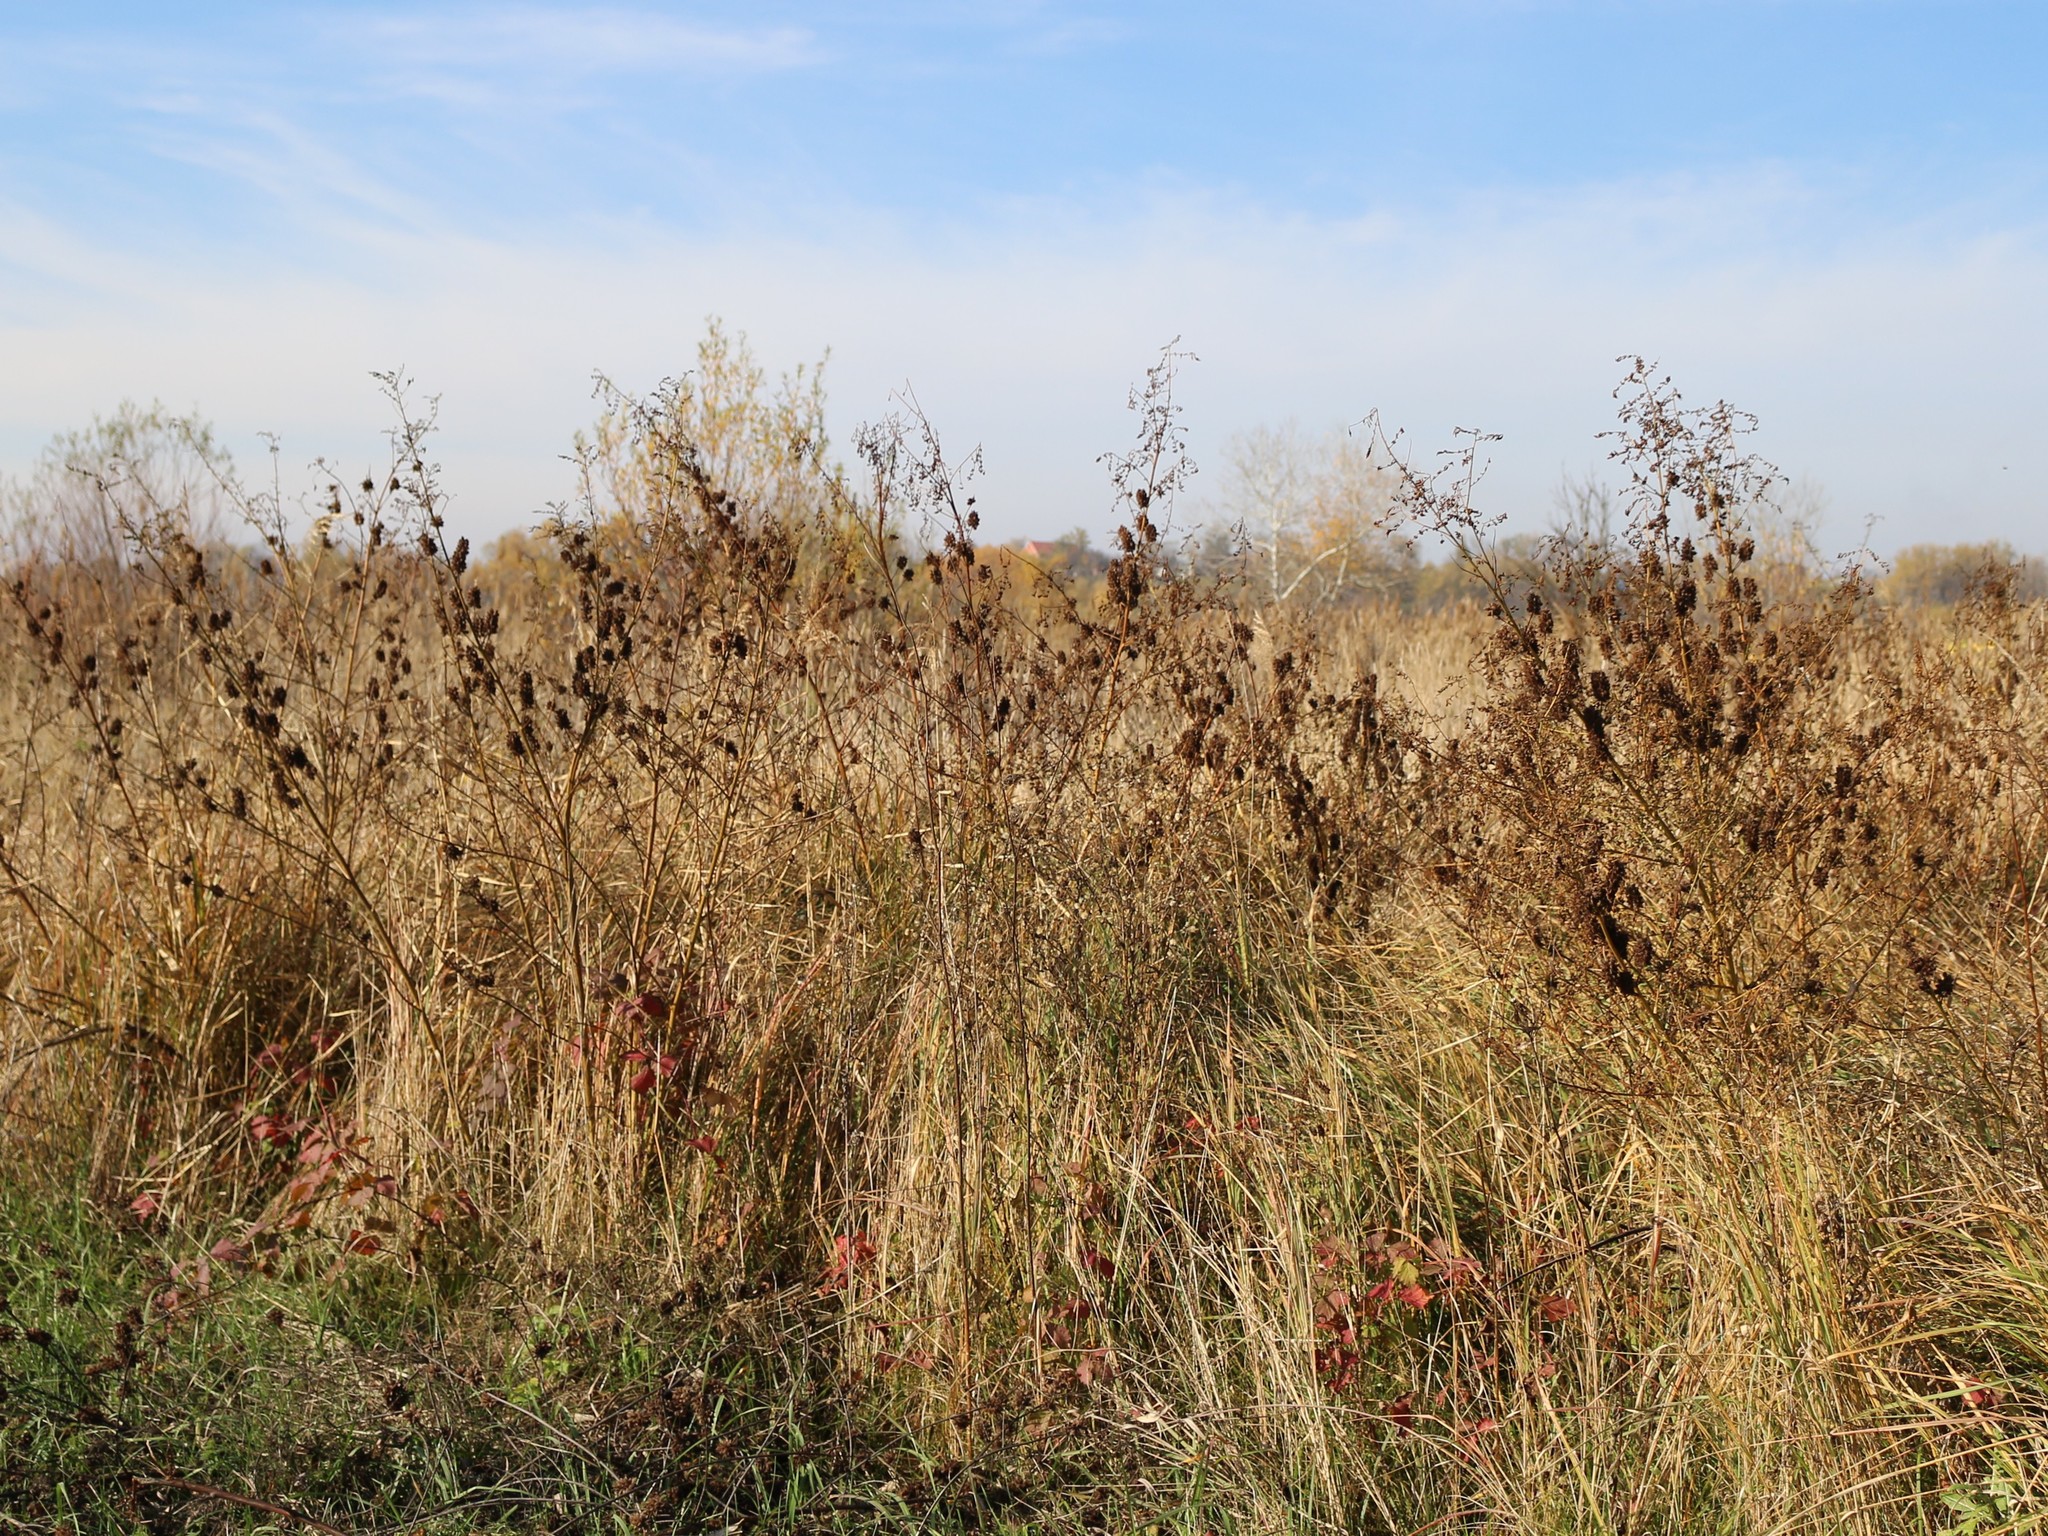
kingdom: Plantae
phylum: Tracheophyta
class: Magnoliopsida
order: Fabales
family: Fabaceae
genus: Glycyrrhiza
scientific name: Glycyrrhiza echinata
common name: German liquorice
